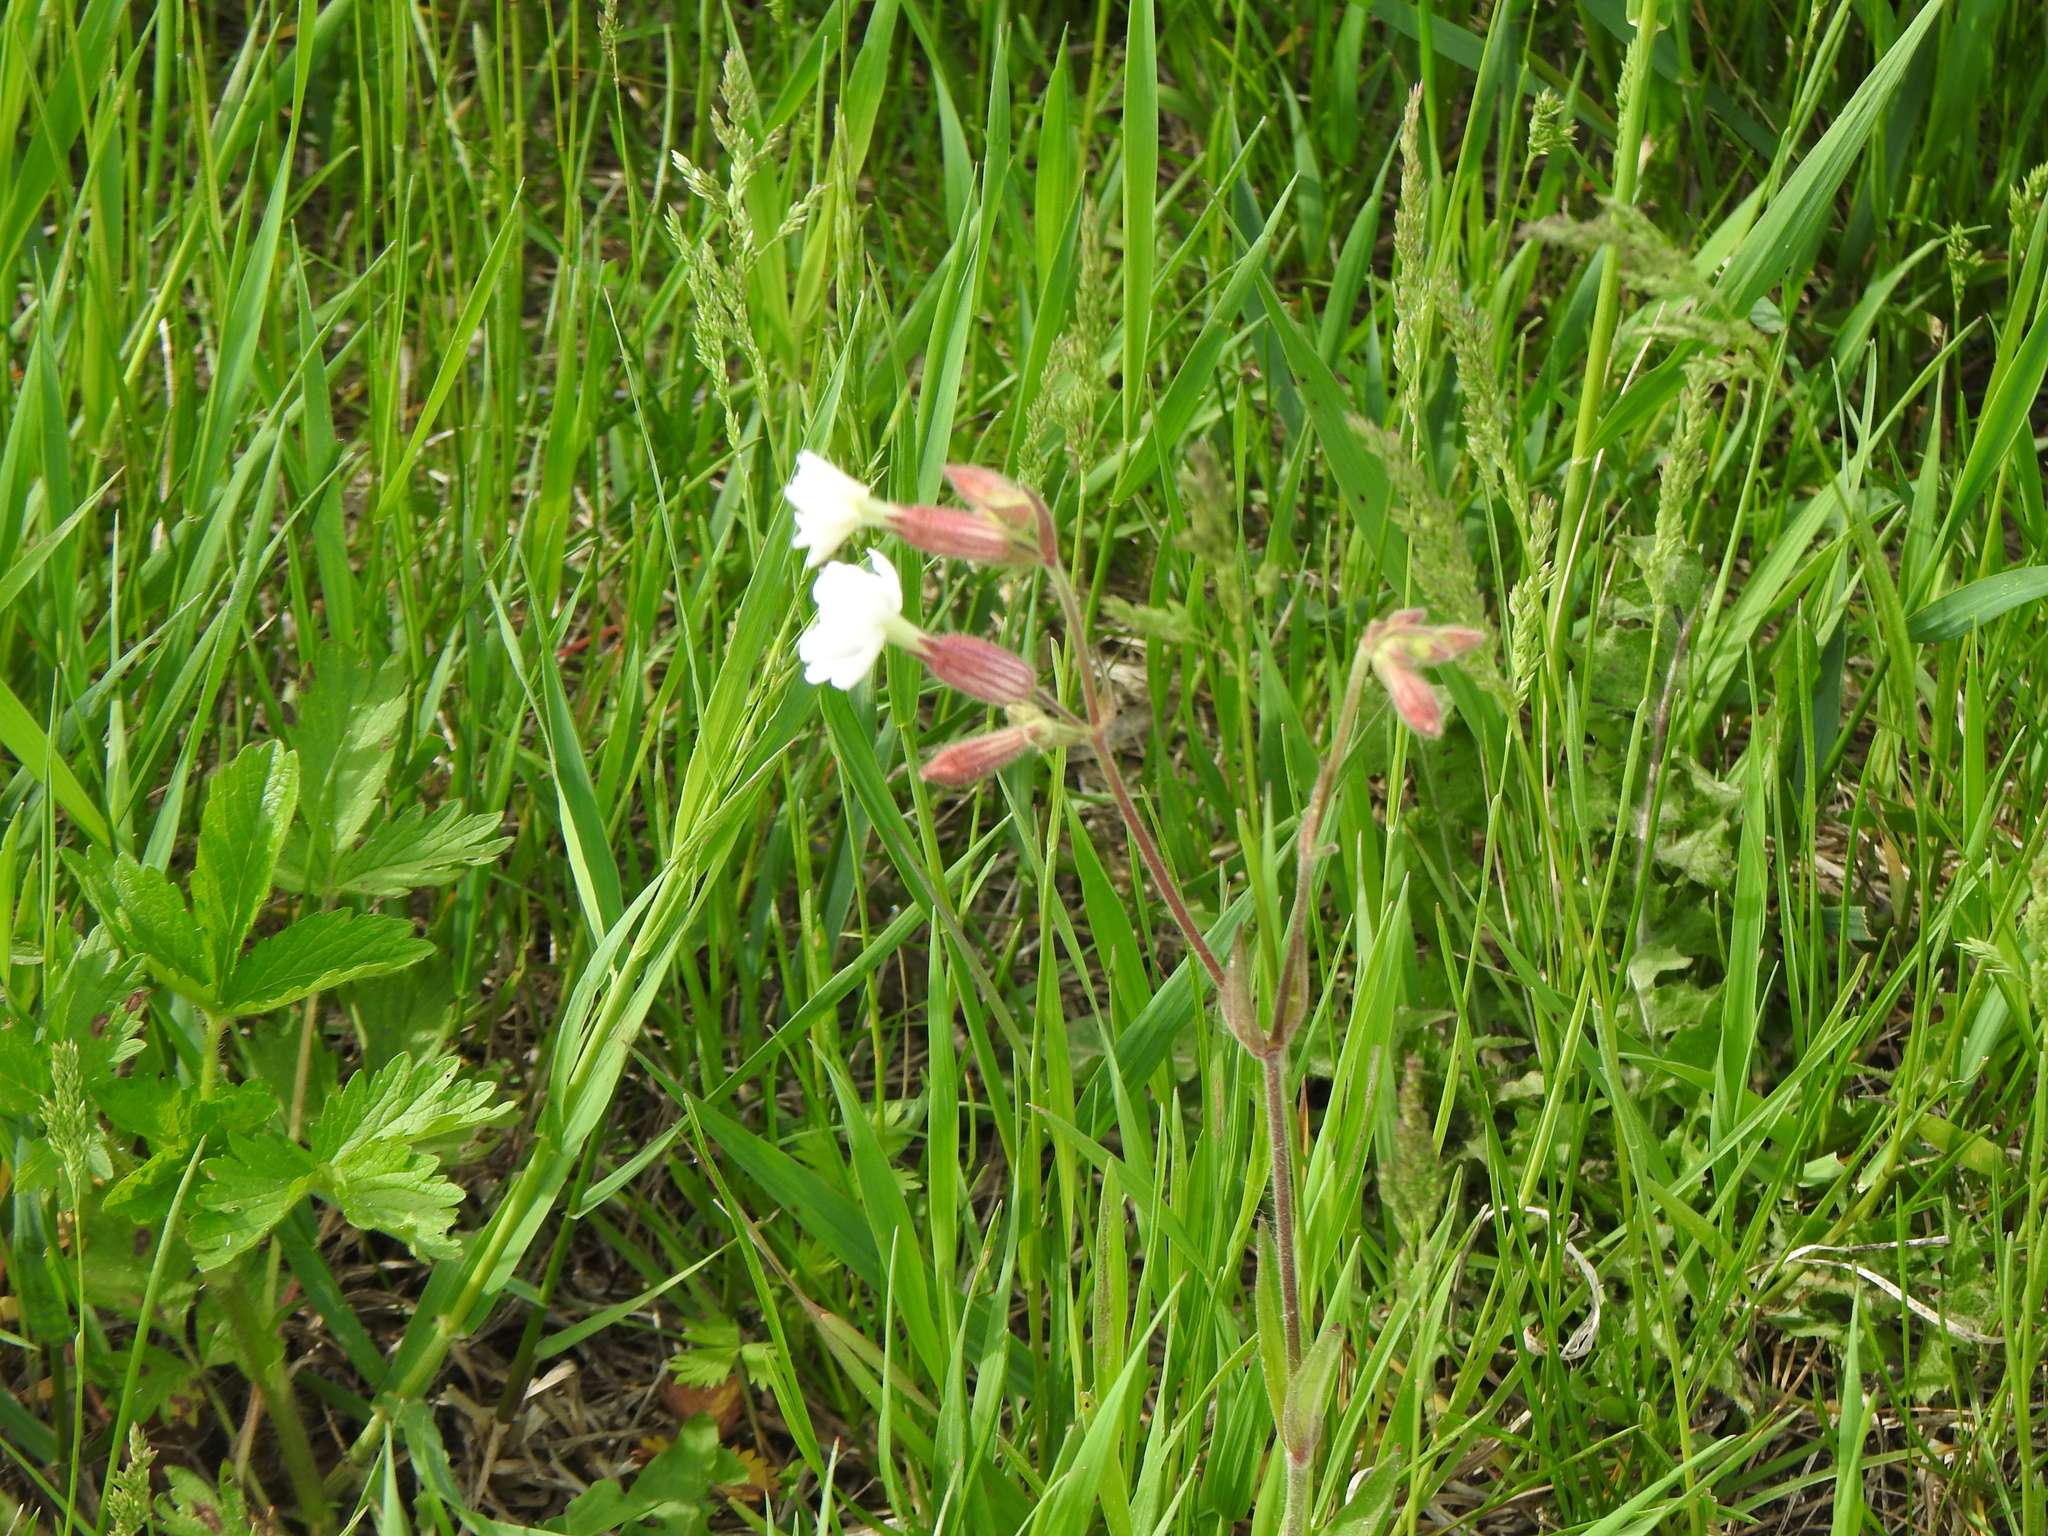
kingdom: Plantae
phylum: Tracheophyta
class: Magnoliopsida
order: Caryophyllales
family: Caryophyllaceae
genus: Silene
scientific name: Silene latifolia
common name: White campion
